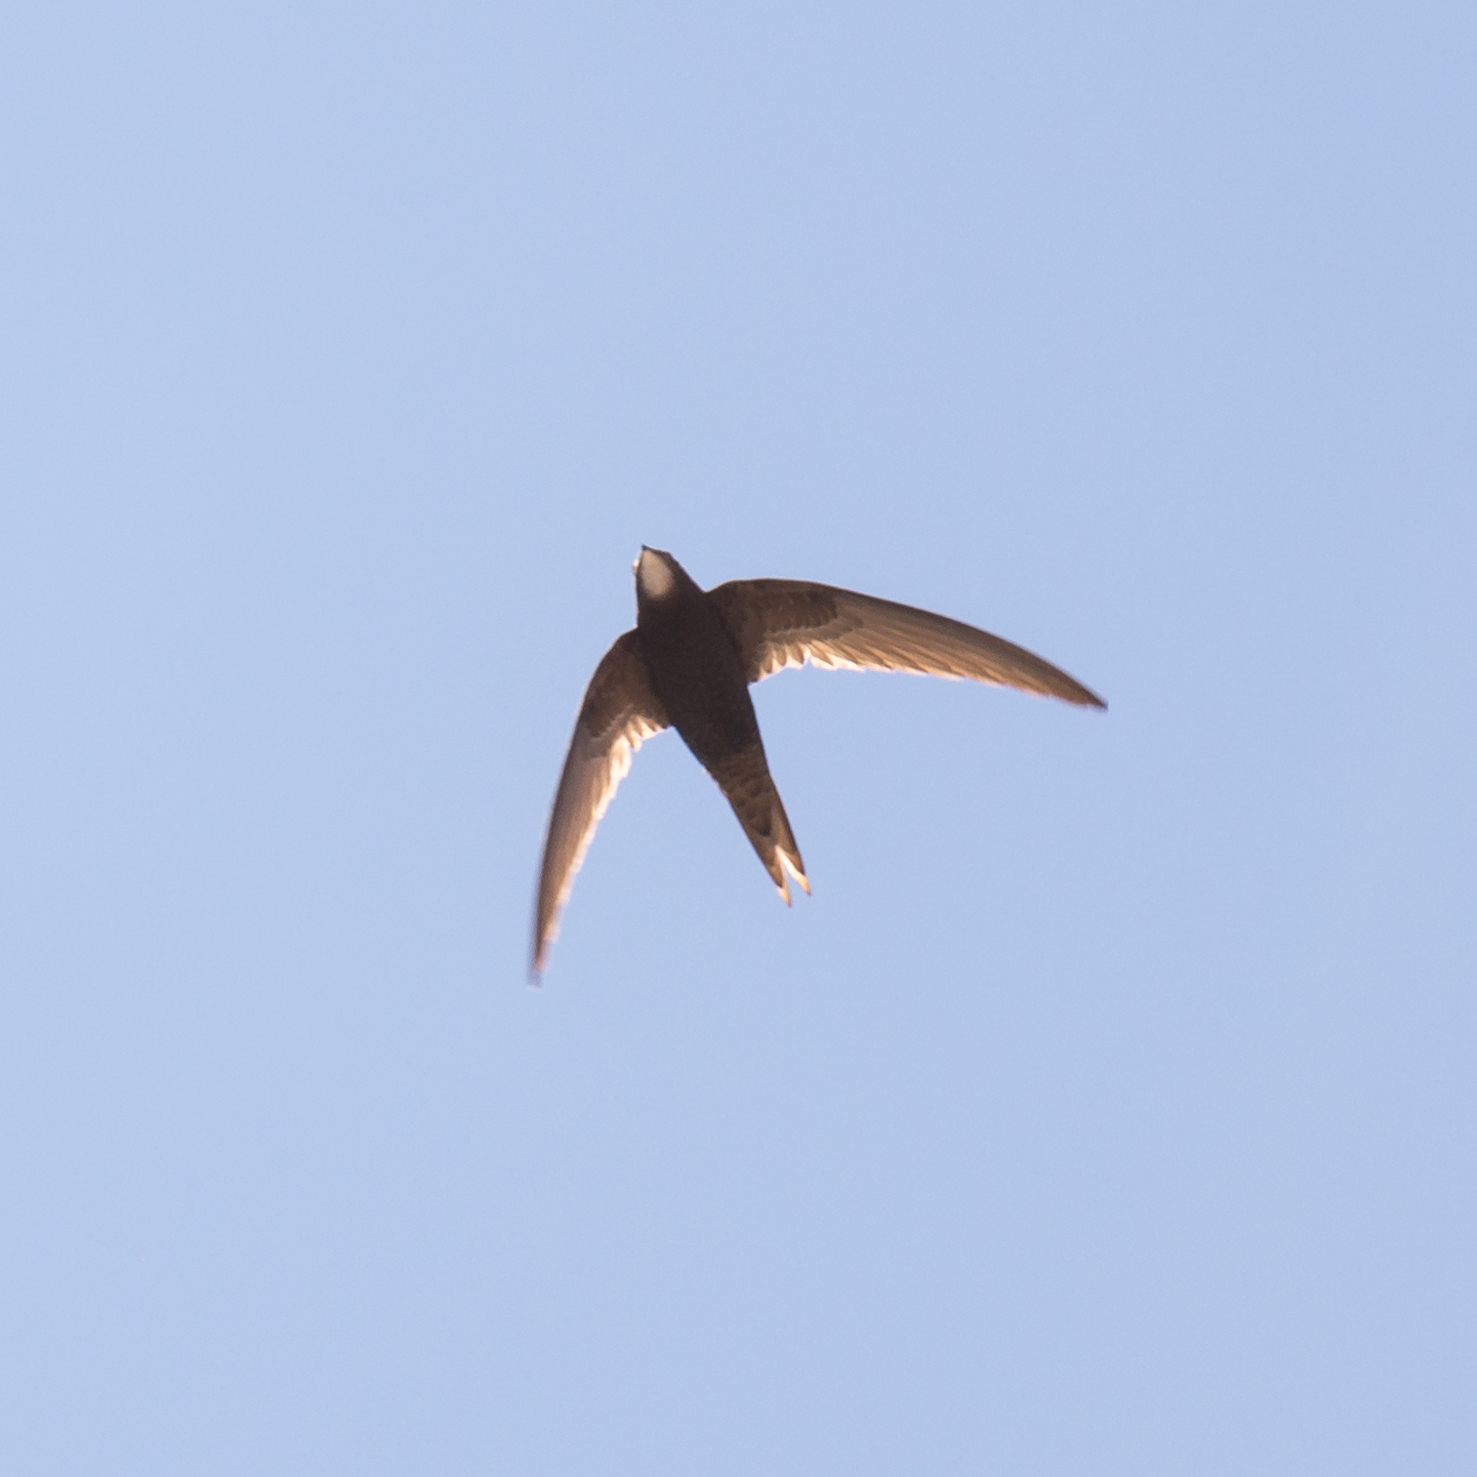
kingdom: Animalia
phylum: Chordata
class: Aves
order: Apodiformes
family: Apodidae
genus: Apus
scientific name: Apus apus
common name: Common swift
